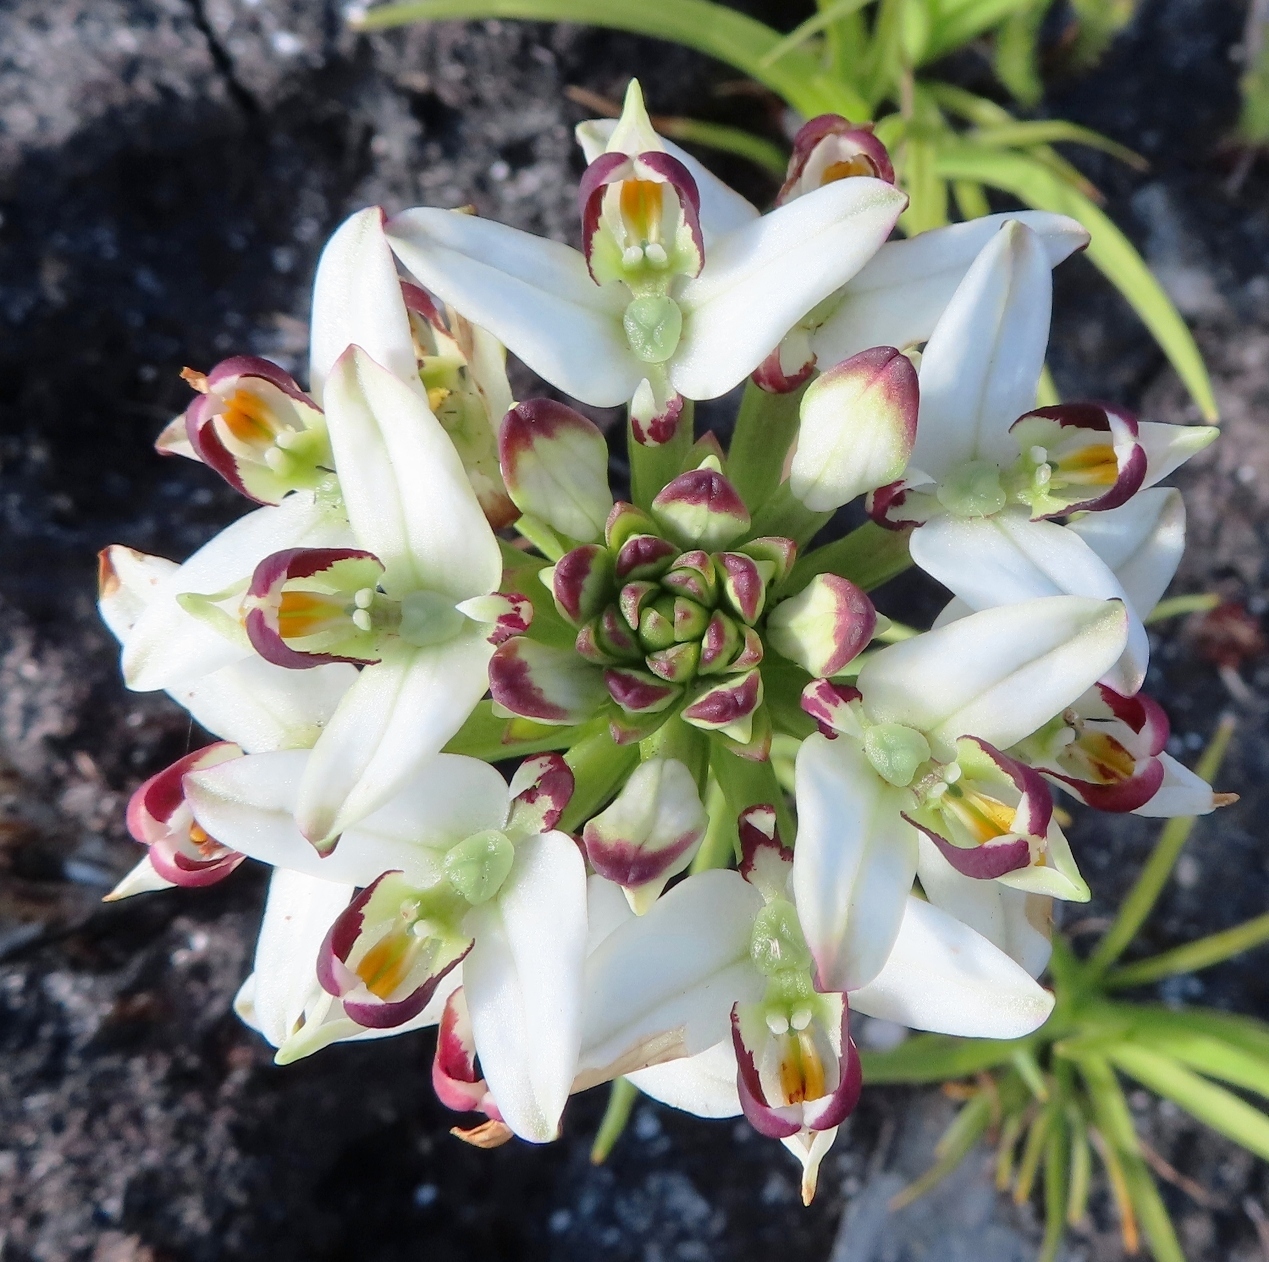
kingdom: Plantae
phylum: Tracheophyta
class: Liliopsida
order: Asparagales
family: Orchidaceae
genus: Disa
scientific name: Disa bivalvata
